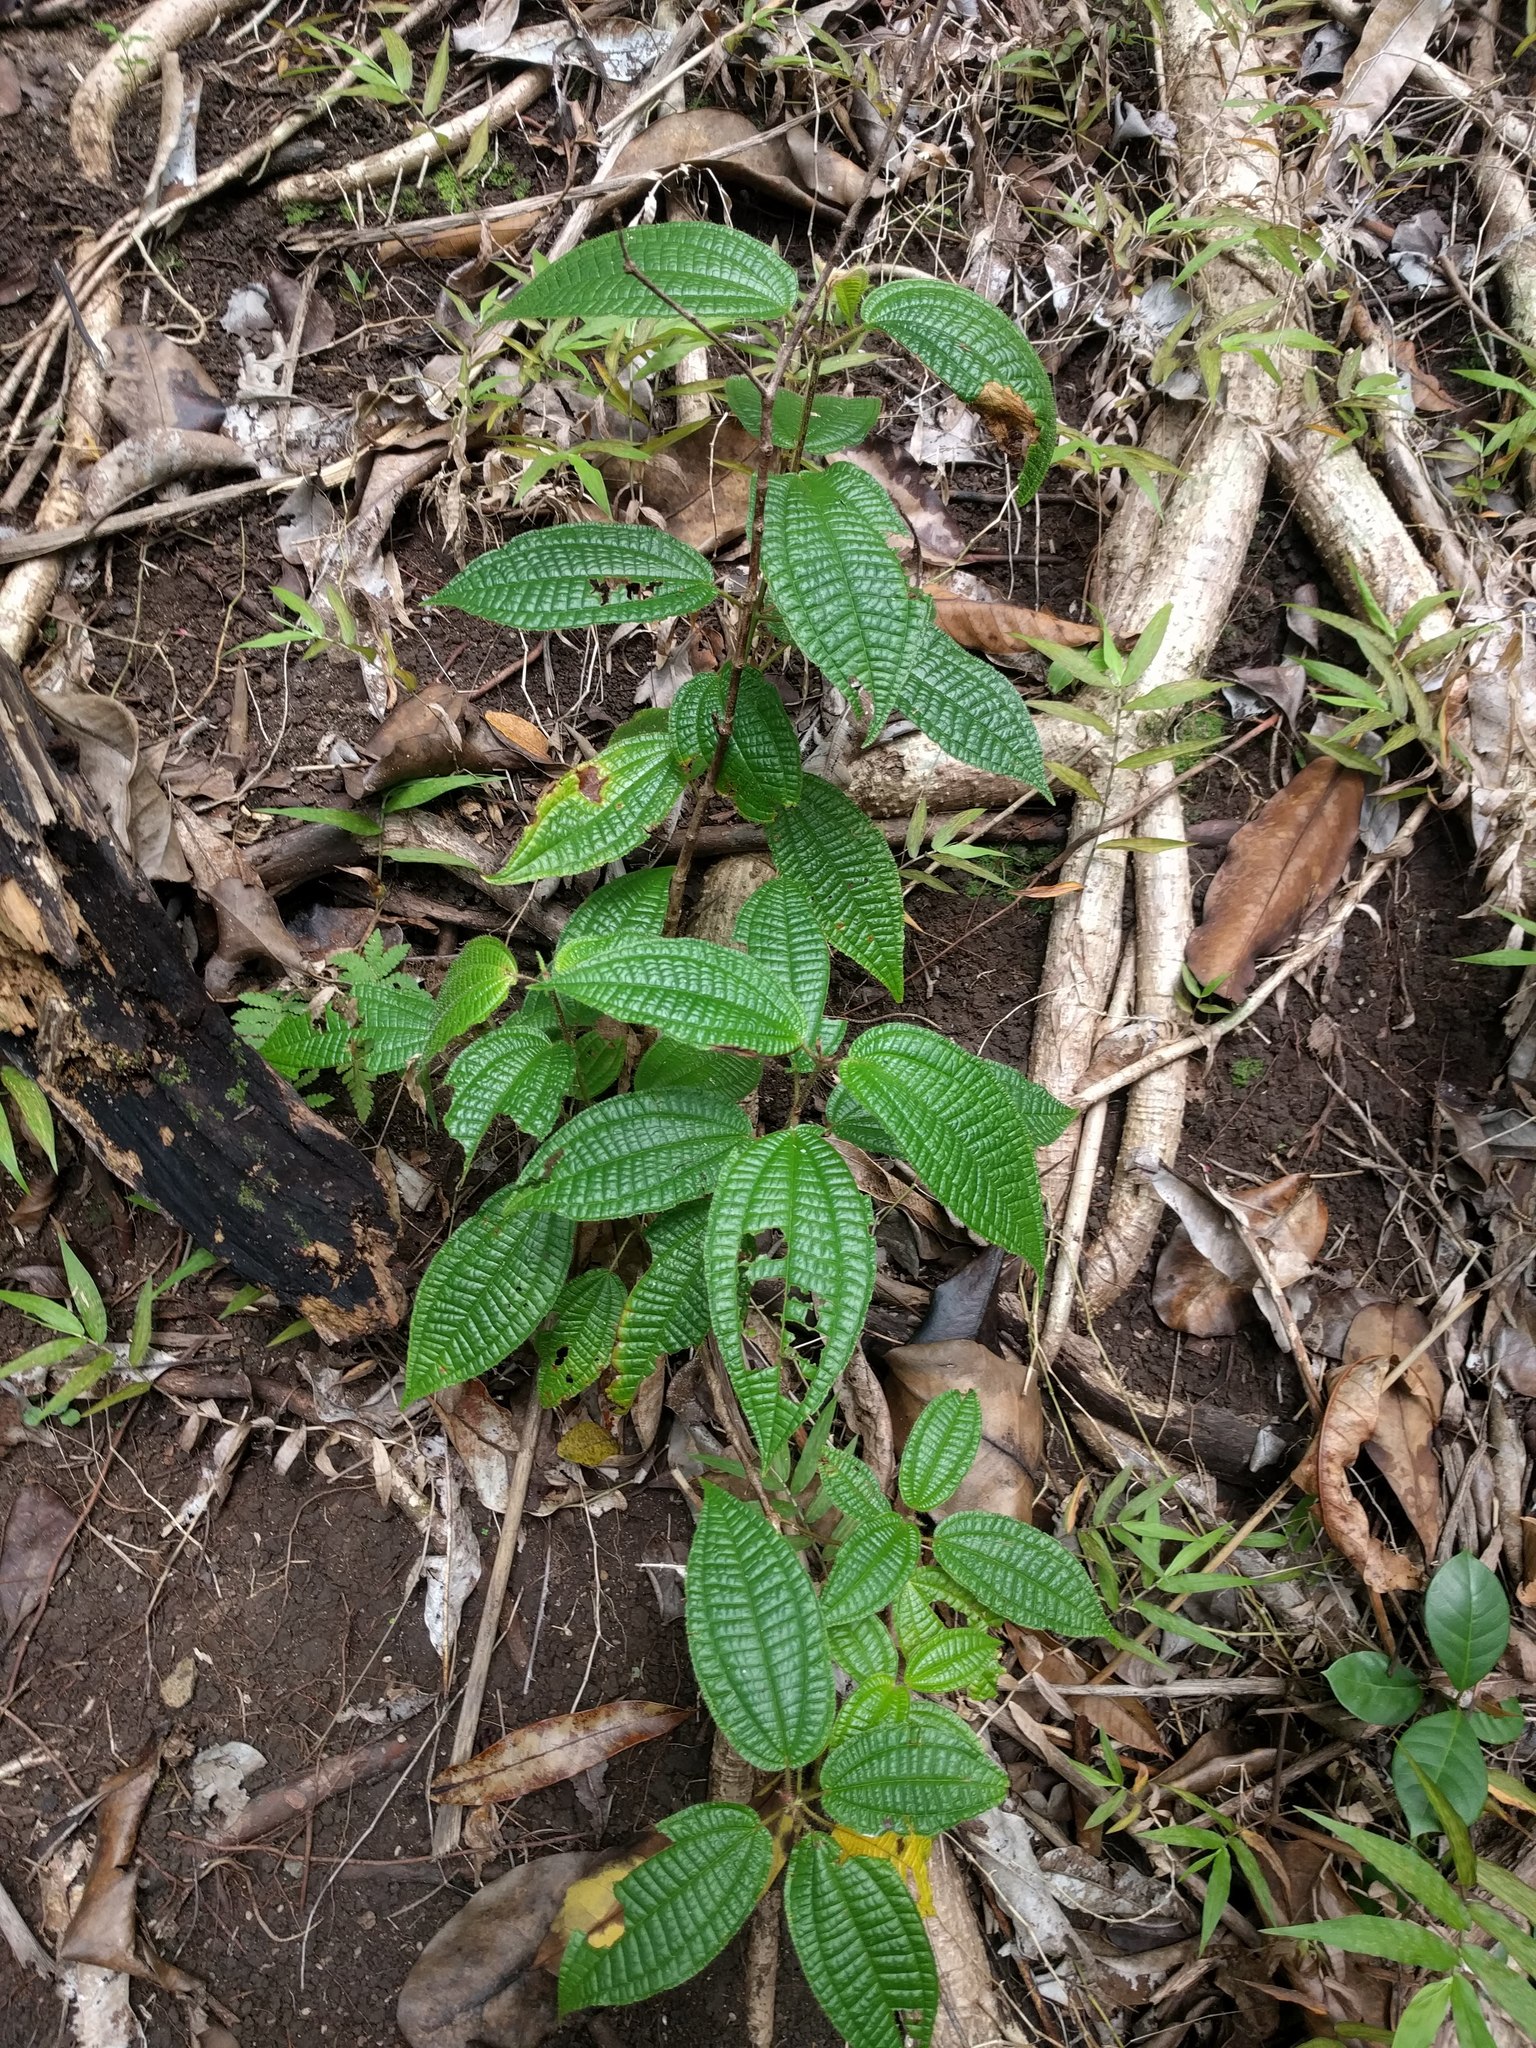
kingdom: Plantae
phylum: Tracheophyta
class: Magnoliopsida
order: Myrtales
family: Melastomataceae
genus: Miconia
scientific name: Miconia crenata
